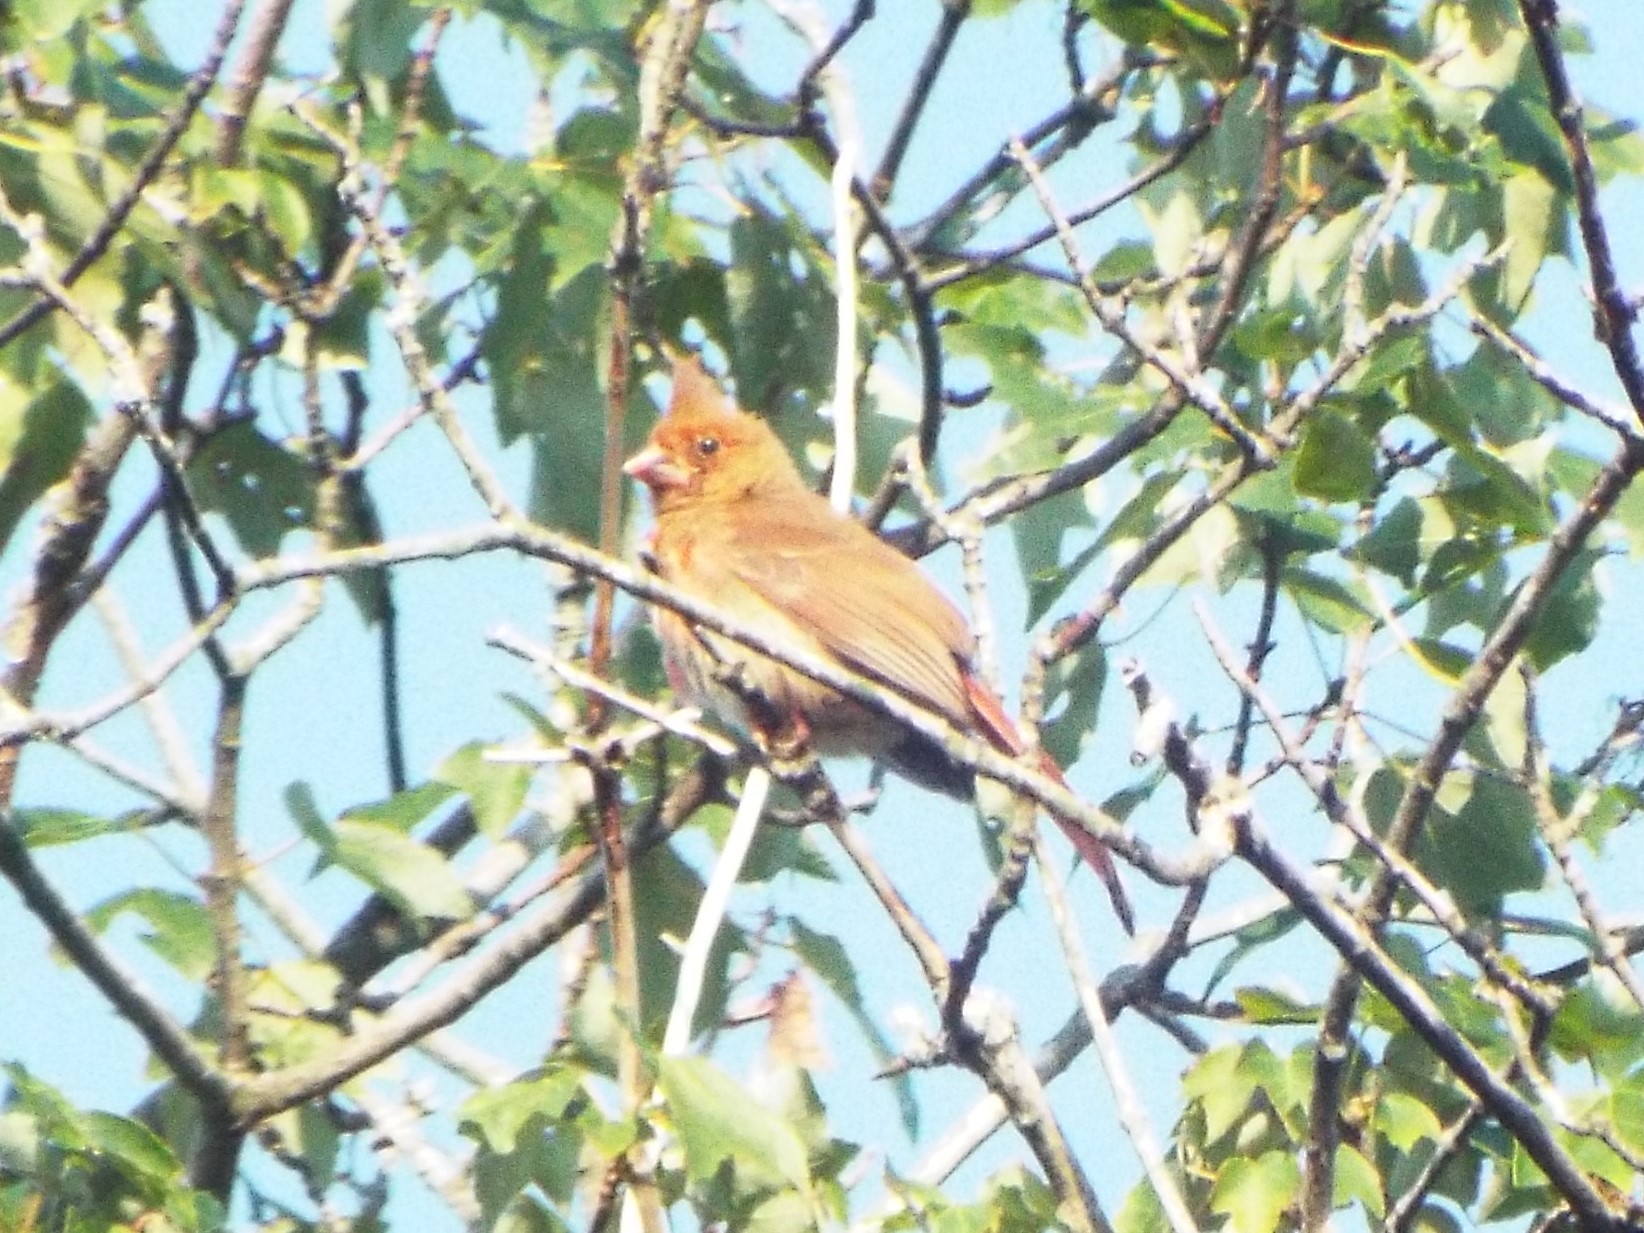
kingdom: Animalia
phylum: Chordata
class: Aves
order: Passeriformes
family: Cardinalidae
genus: Cardinalis
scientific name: Cardinalis cardinalis
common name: Northern cardinal
